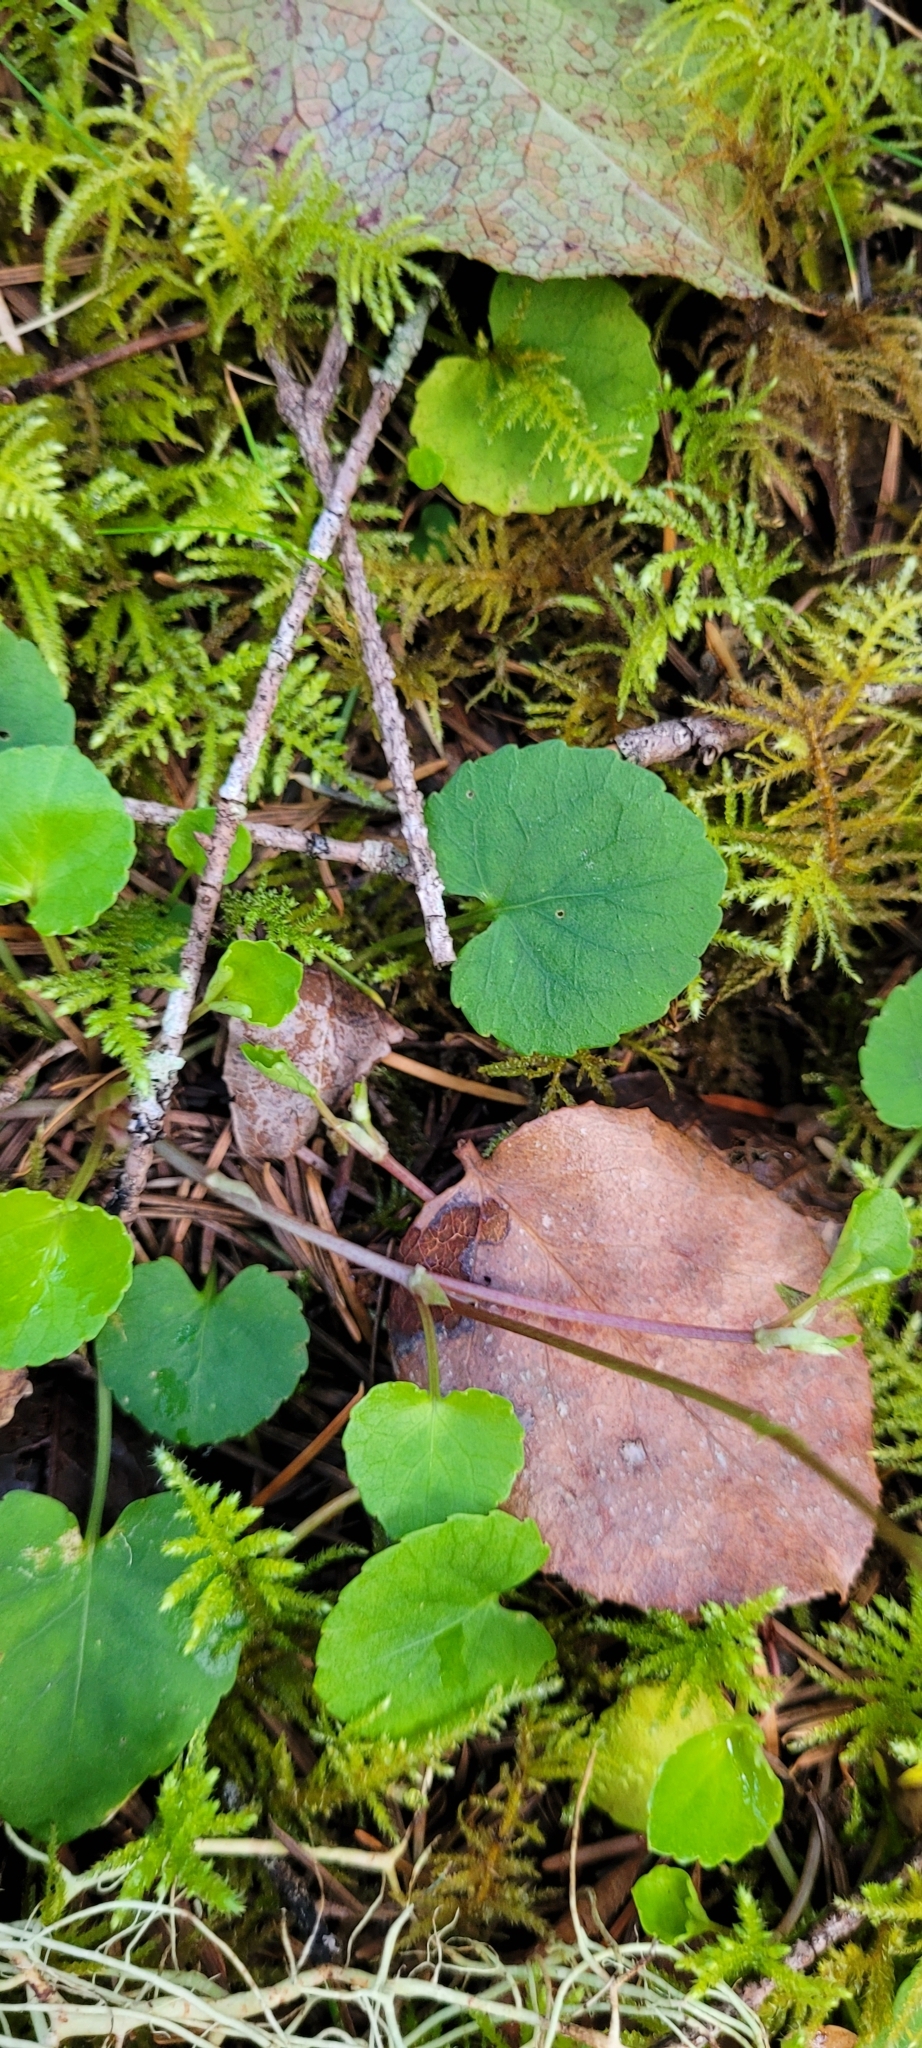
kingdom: Plantae
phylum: Tracheophyta
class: Magnoliopsida
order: Malpighiales
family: Violaceae
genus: Viola
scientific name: Viola sempervirens
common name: Evergreen violet
